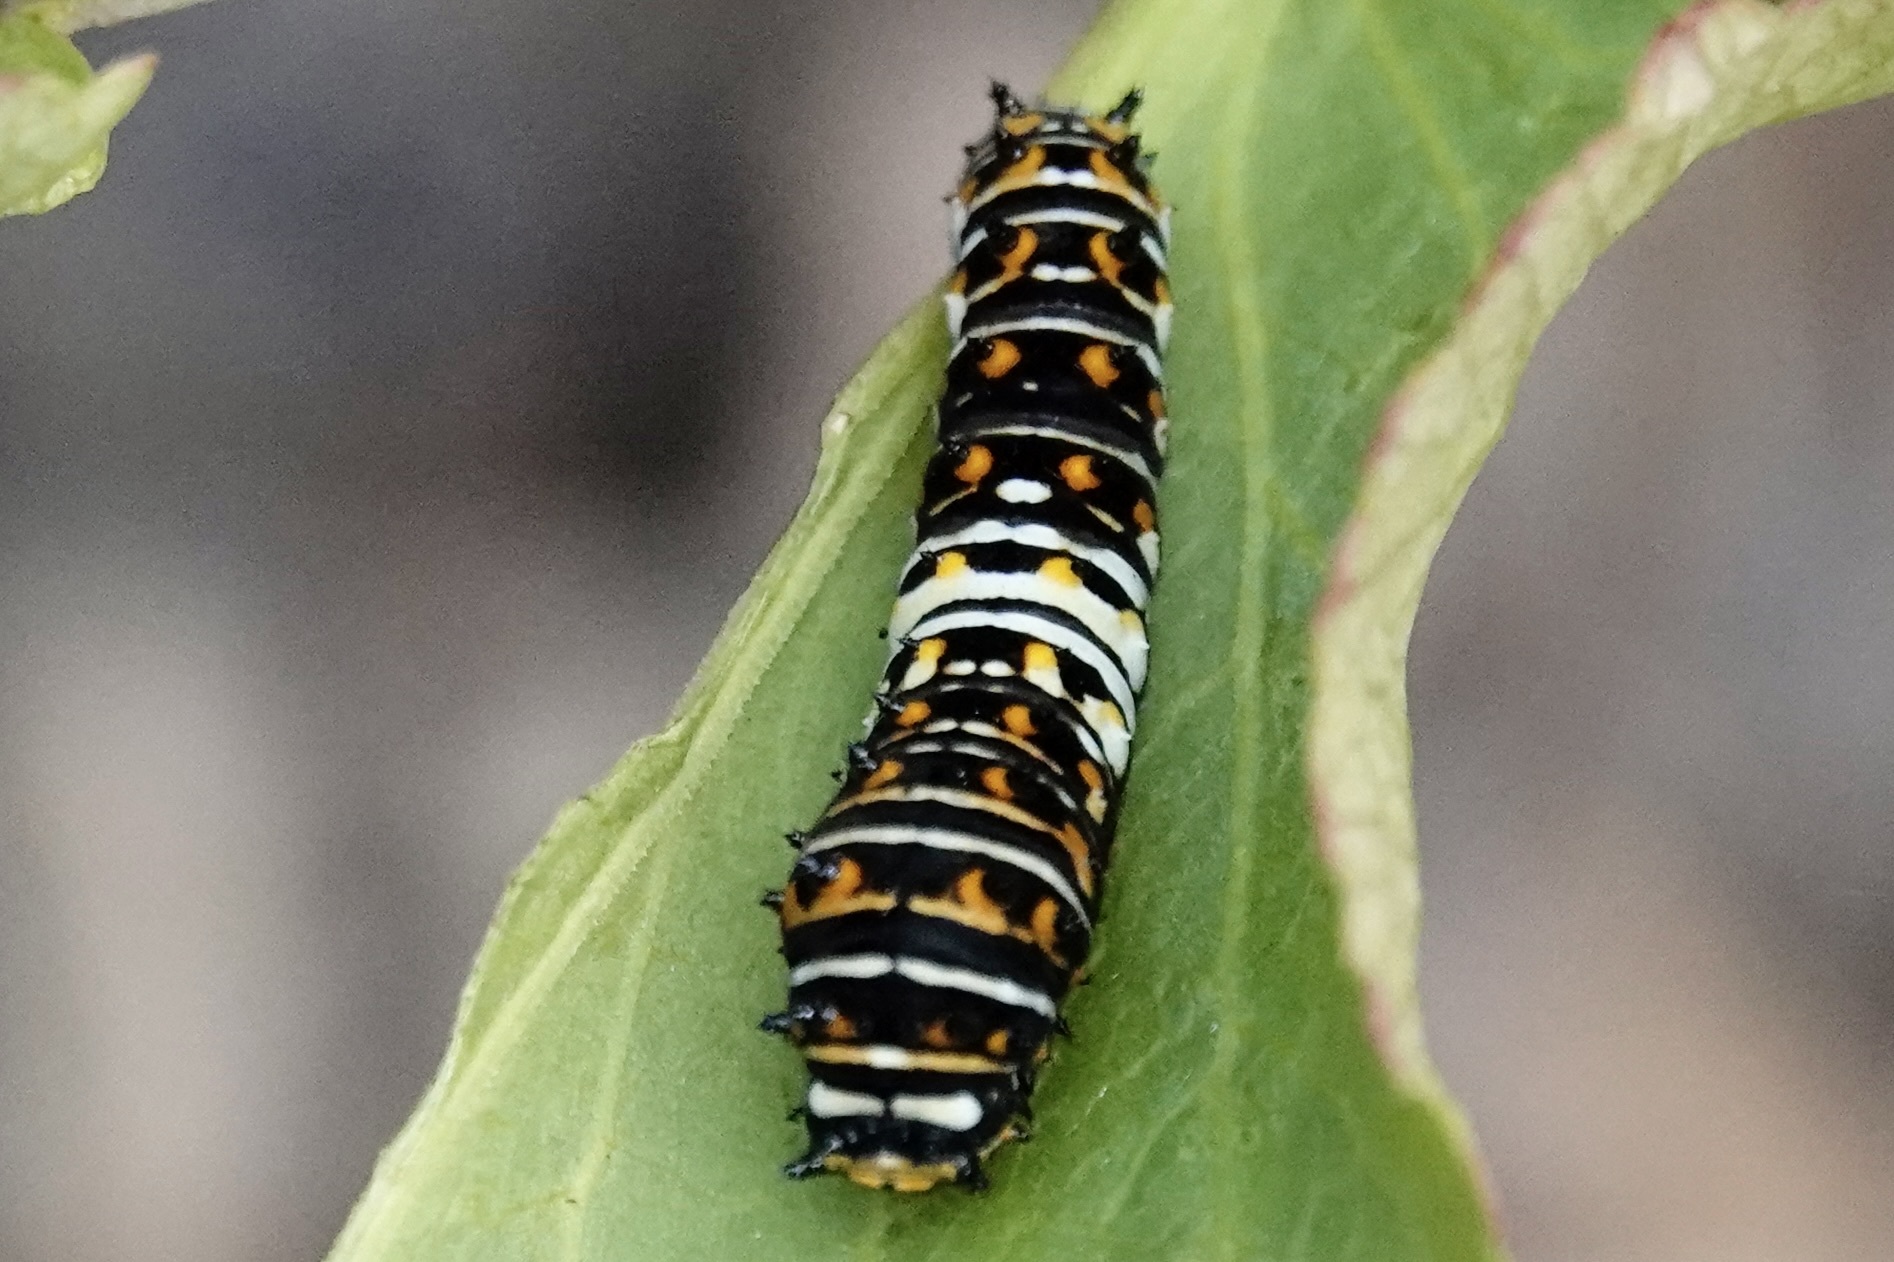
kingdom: Animalia
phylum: Arthropoda
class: Insecta
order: Lepidoptera
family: Papilionidae
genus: Papilio
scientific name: Papilio polyxenes
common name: Black swallowtail
